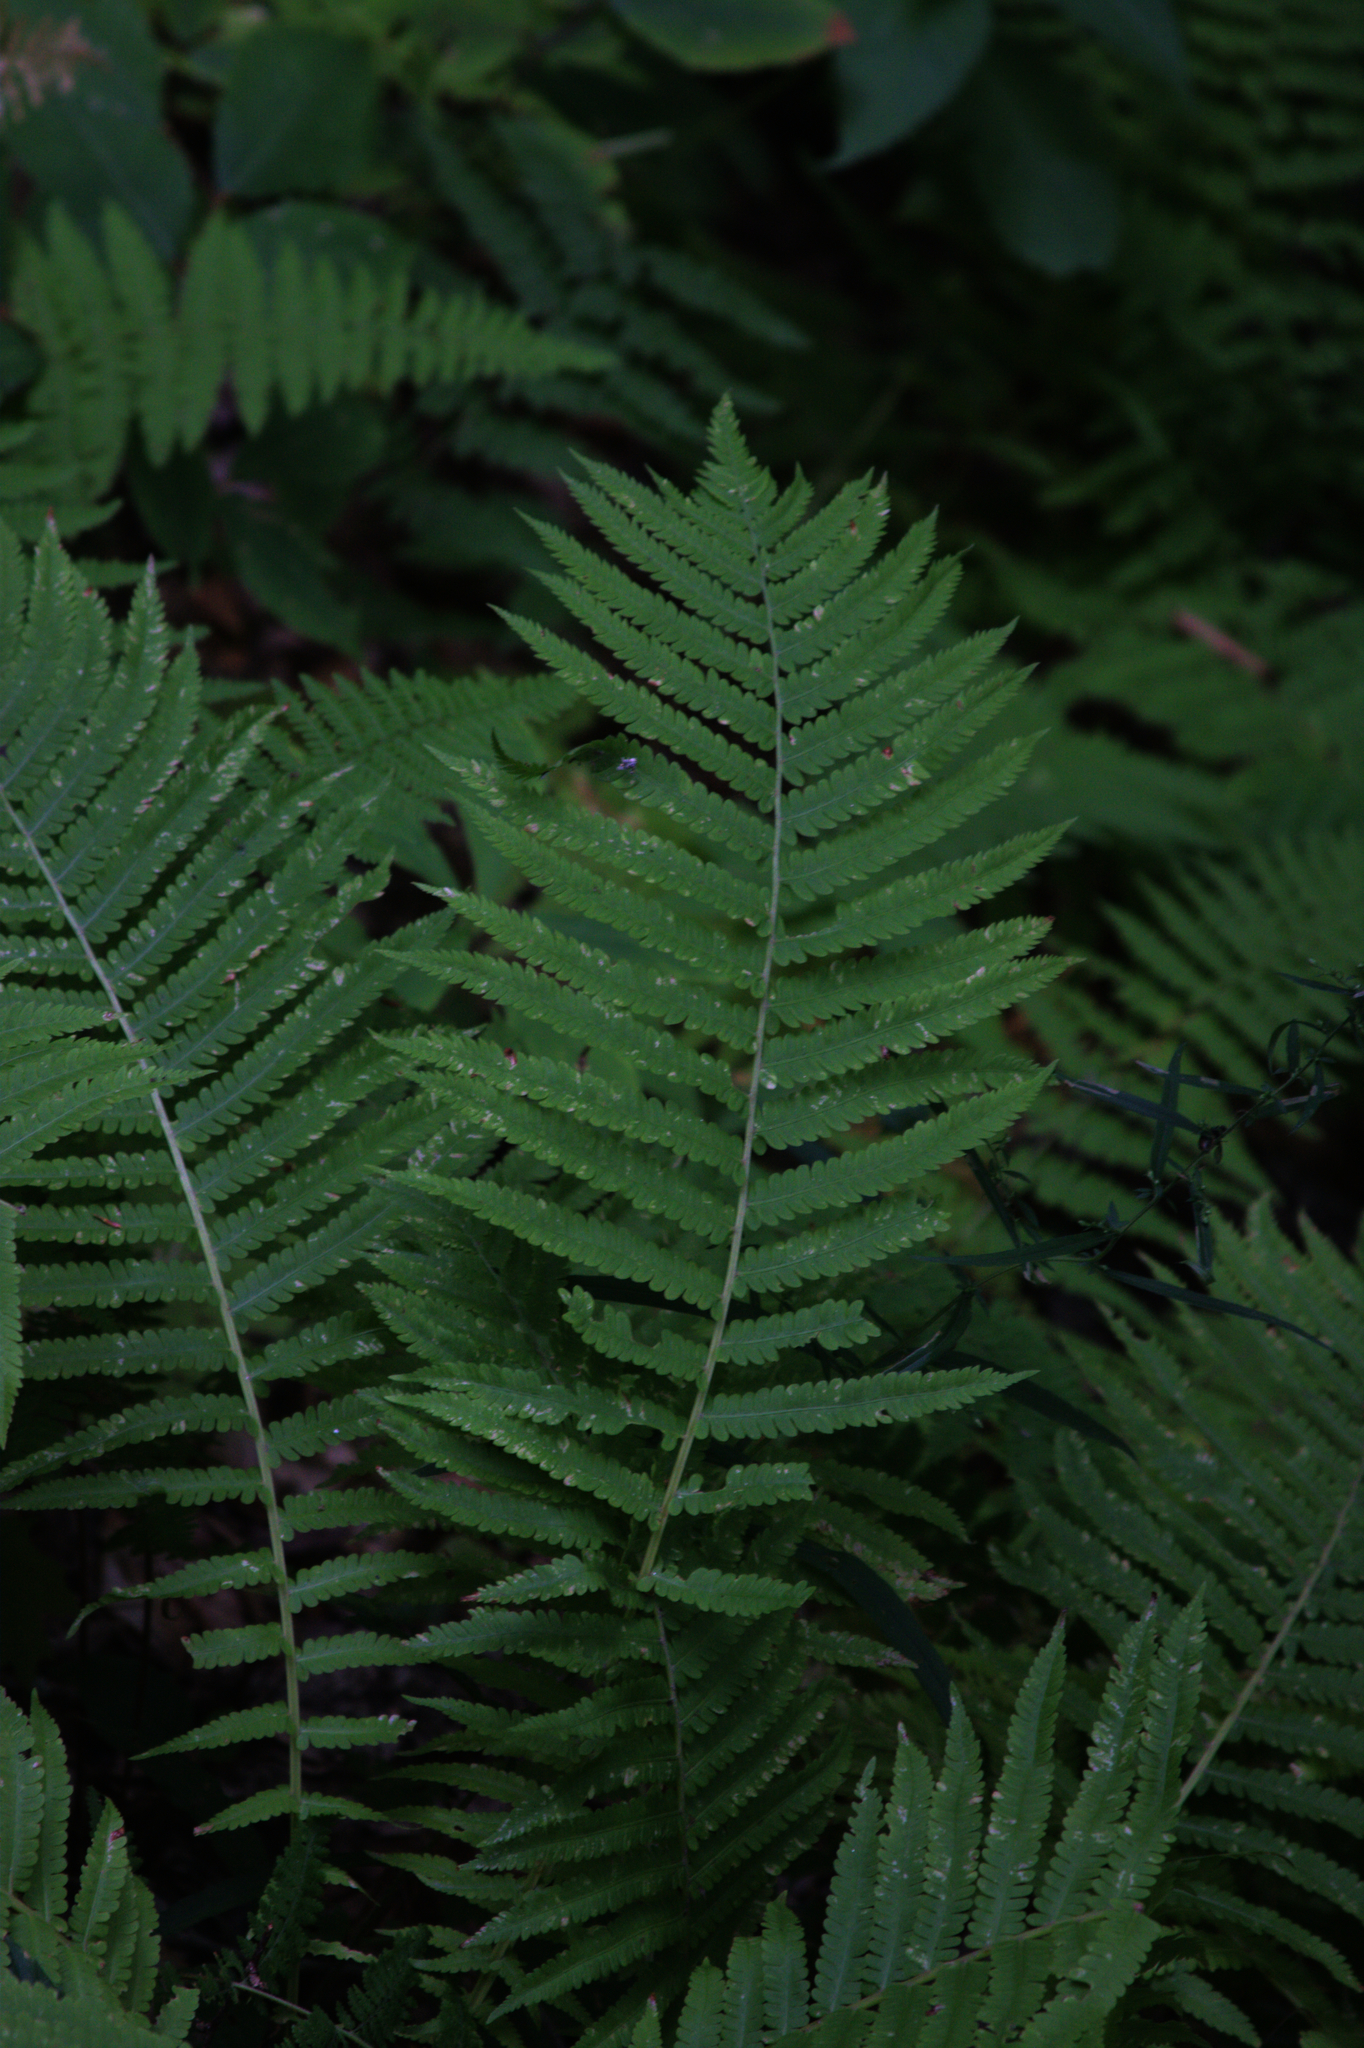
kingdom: Plantae
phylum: Tracheophyta
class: Polypodiopsida
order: Polypodiales
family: Onocleaceae
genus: Matteuccia
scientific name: Matteuccia struthiopteris
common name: Ostrich fern
